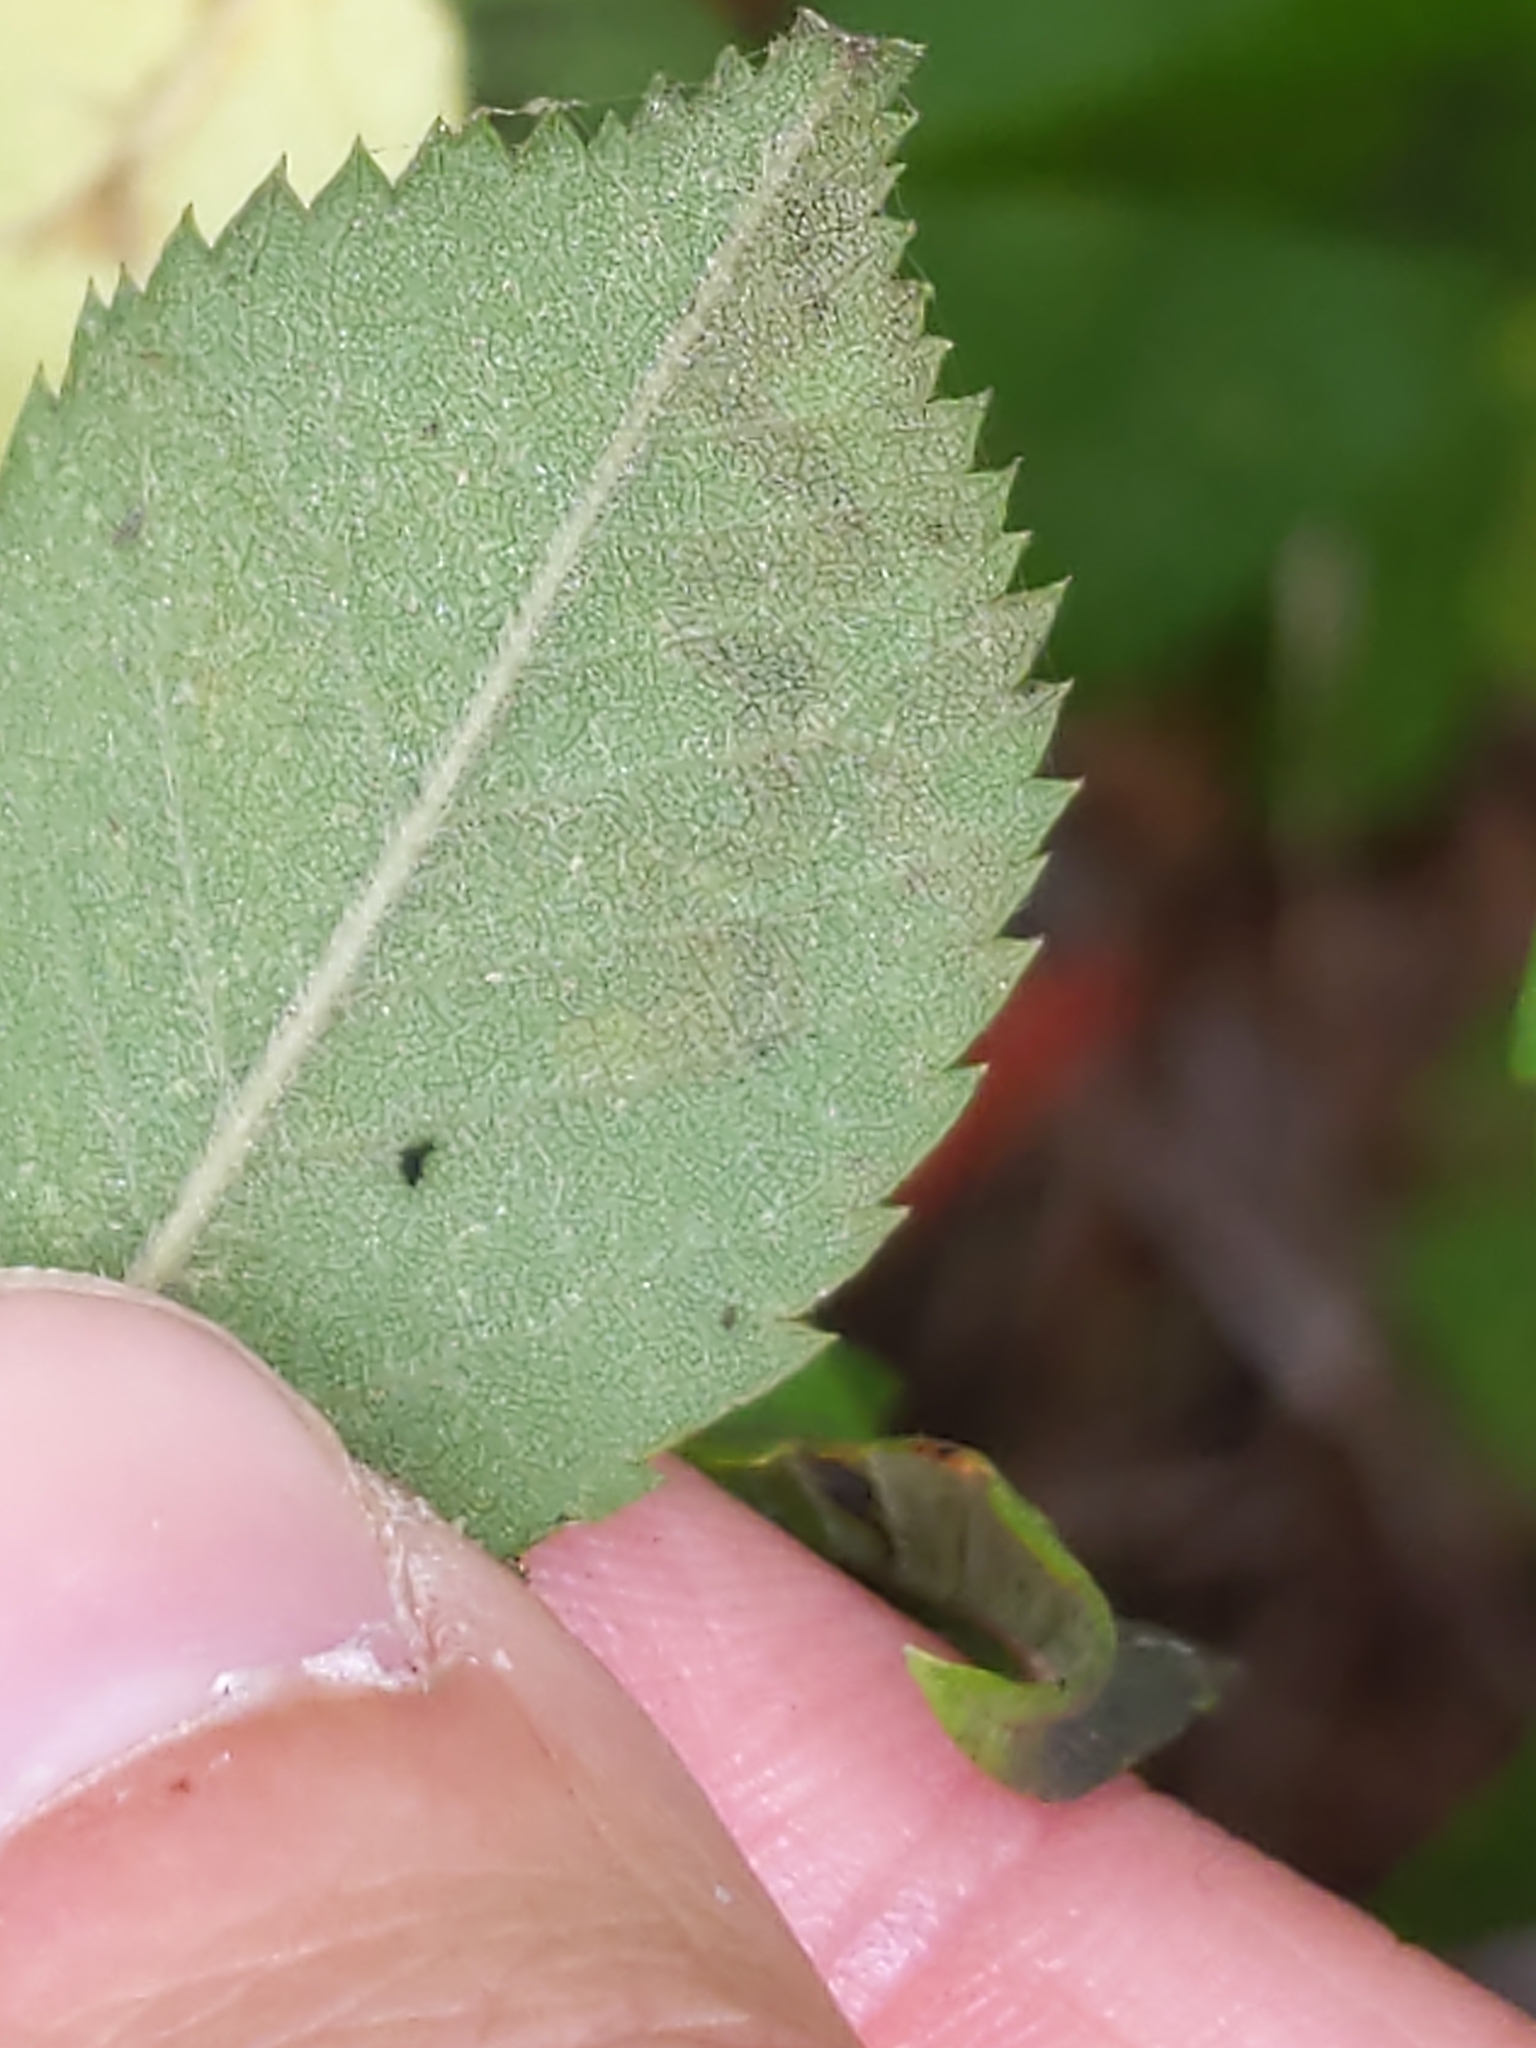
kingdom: Animalia
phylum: Arthropoda
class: Insecta
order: Lepidoptera
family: Nepticulidae
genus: Stigmella
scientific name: Stigmella rosaefoliella
